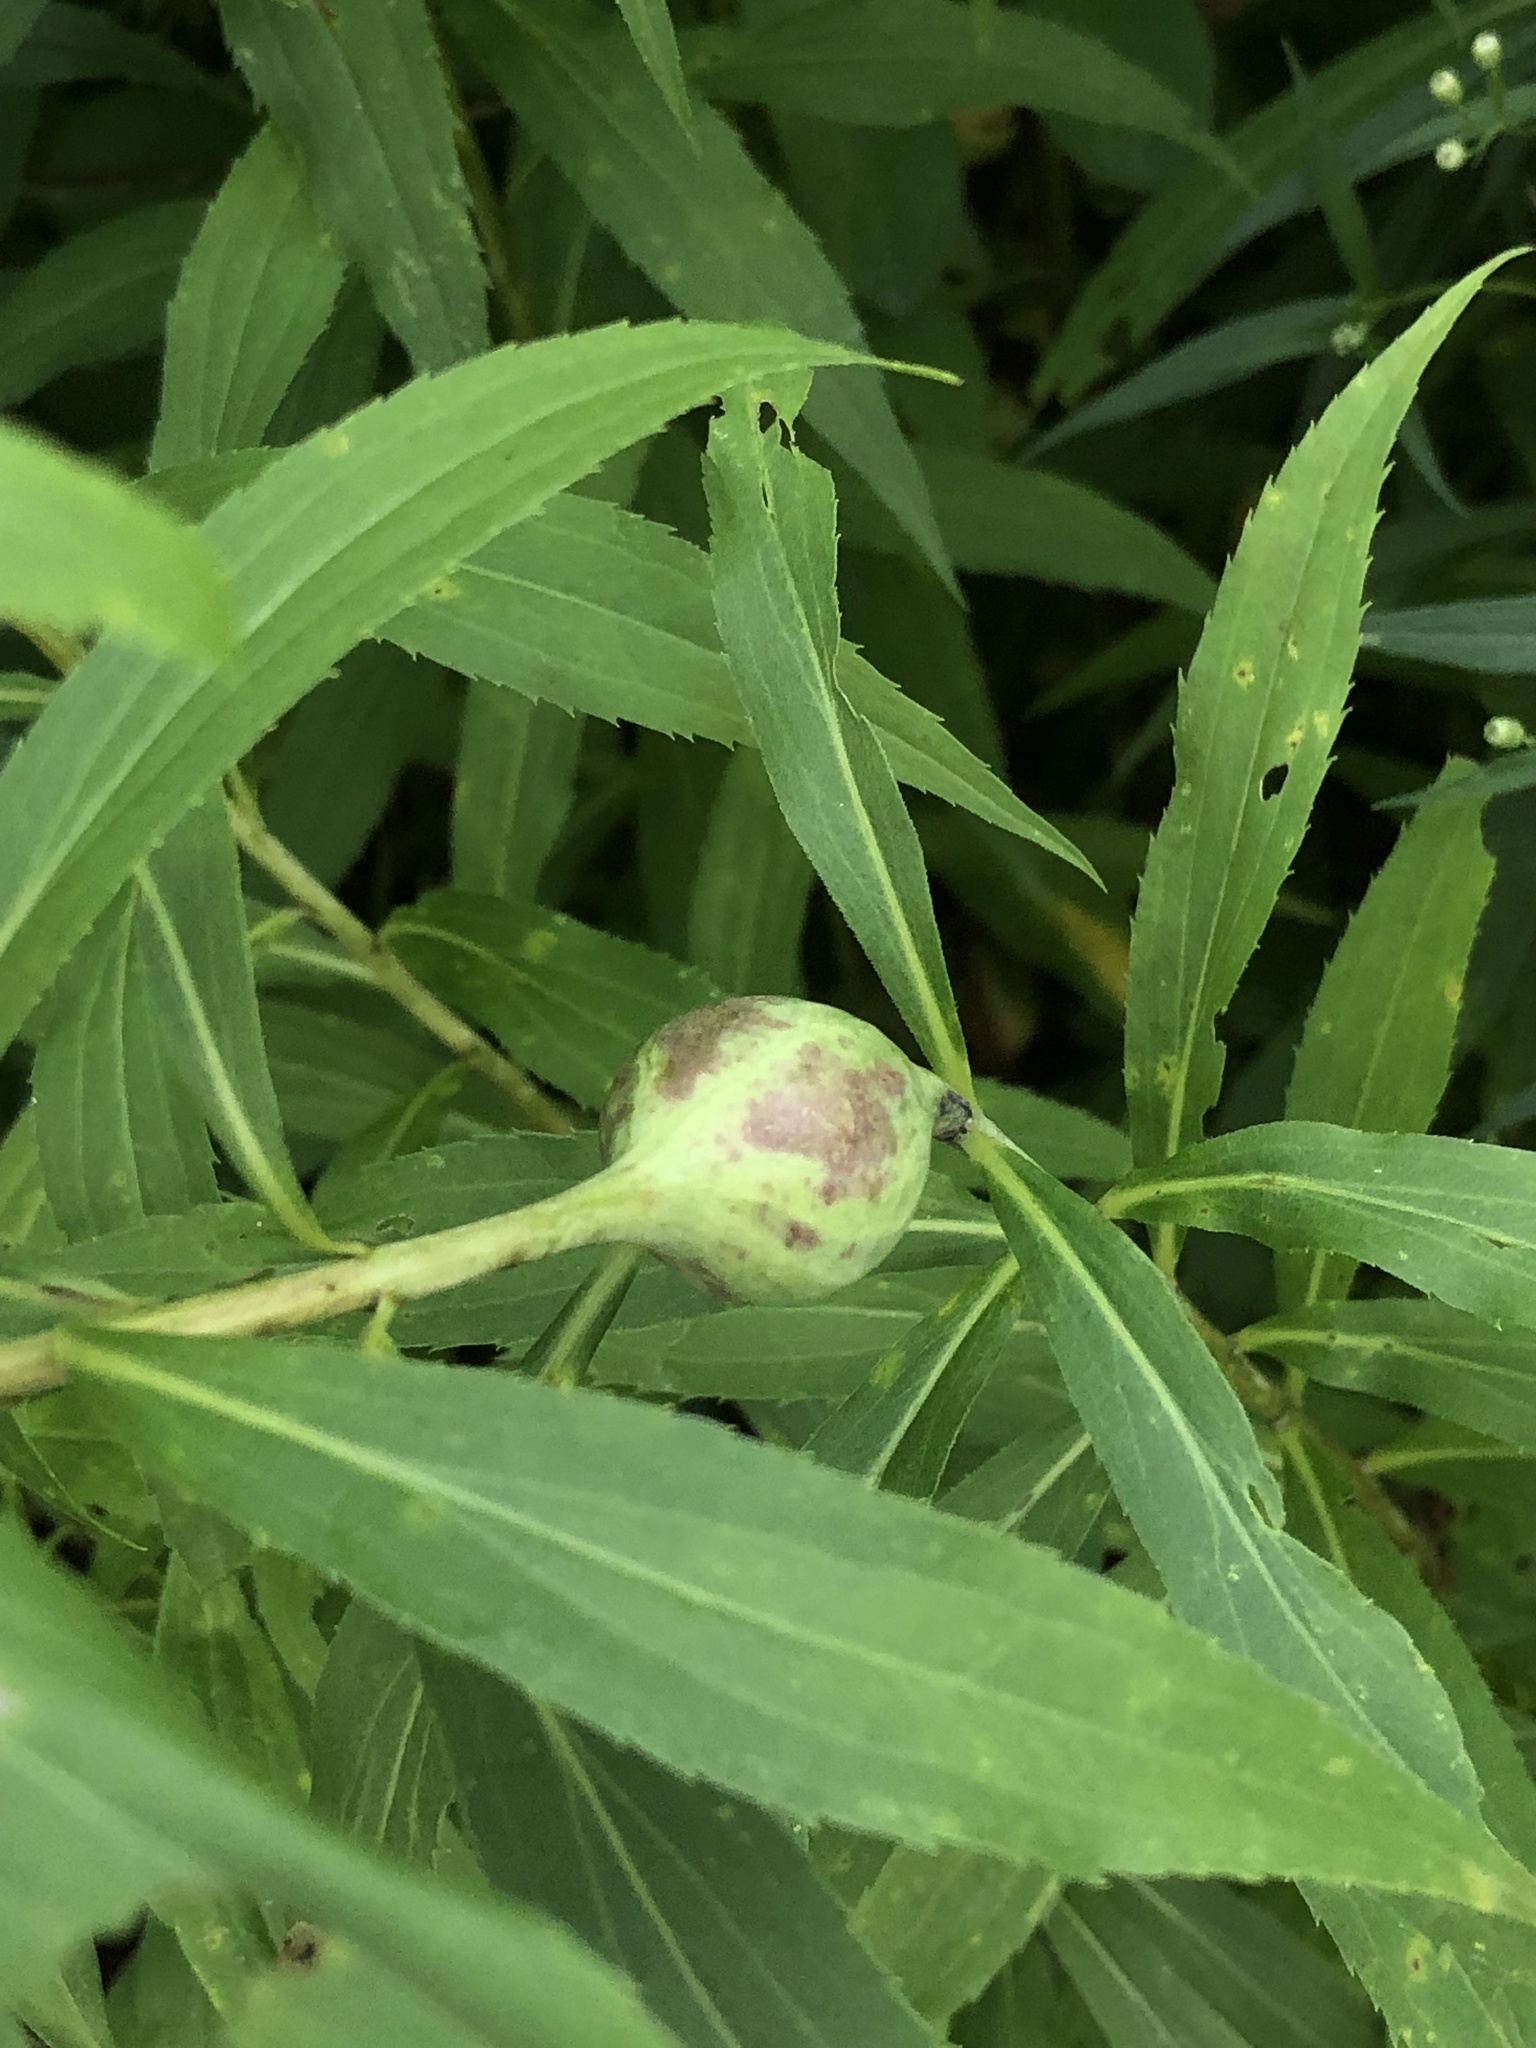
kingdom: Animalia
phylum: Arthropoda
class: Insecta
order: Diptera
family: Tephritidae
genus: Eurosta
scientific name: Eurosta solidaginis
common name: Goldenrod gall fly
